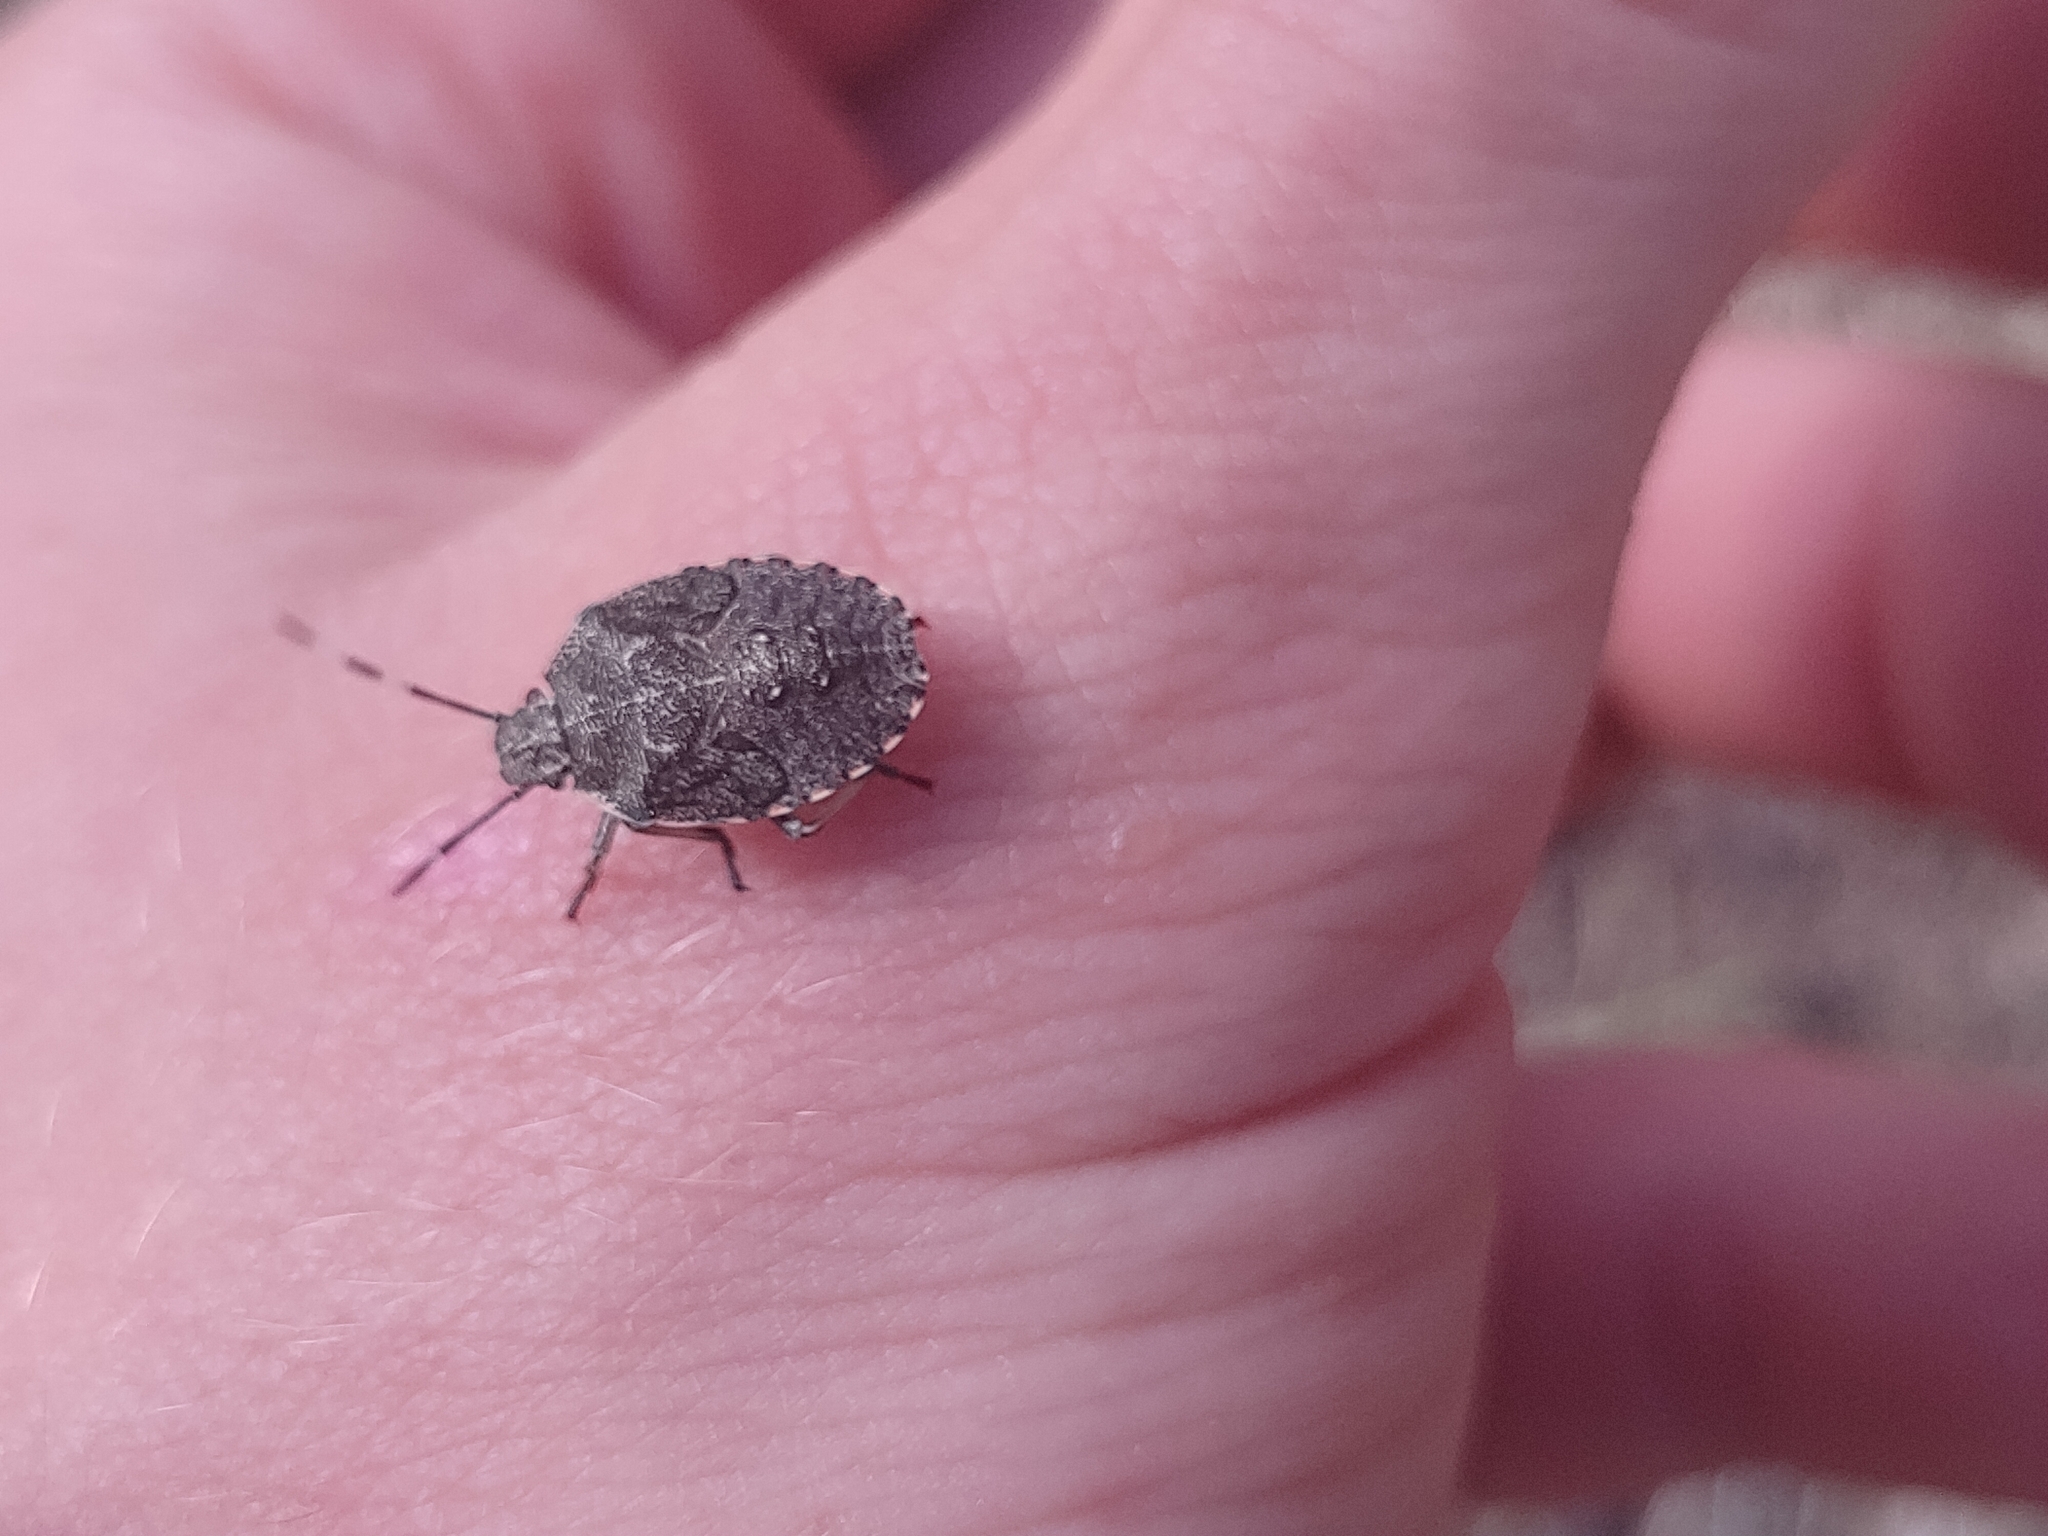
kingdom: Animalia
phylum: Arthropoda
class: Insecta
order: Hemiptera
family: Pentatomidae
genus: Rhaphigaster
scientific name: Rhaphigaster nebulosa
